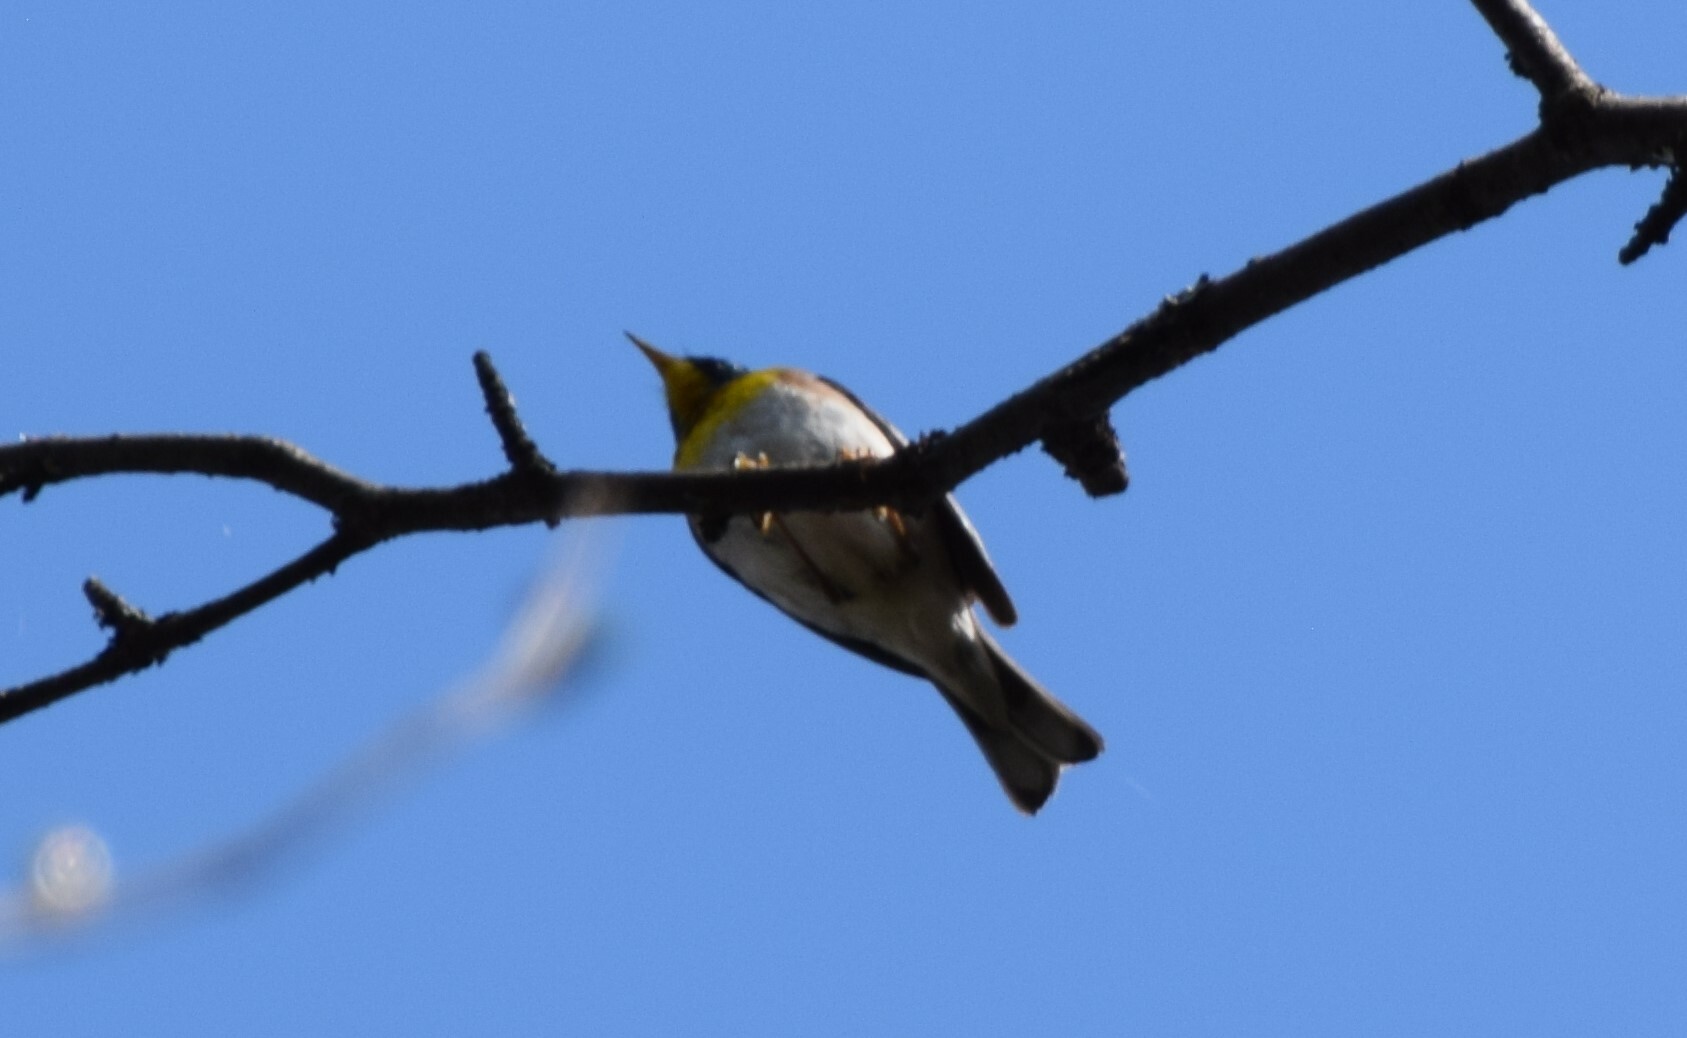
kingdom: Animalia
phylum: Chordata
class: Aves
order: Passeriformes
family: Parulidae
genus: Setophaga
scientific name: Setophaga americana
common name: Northern parula
